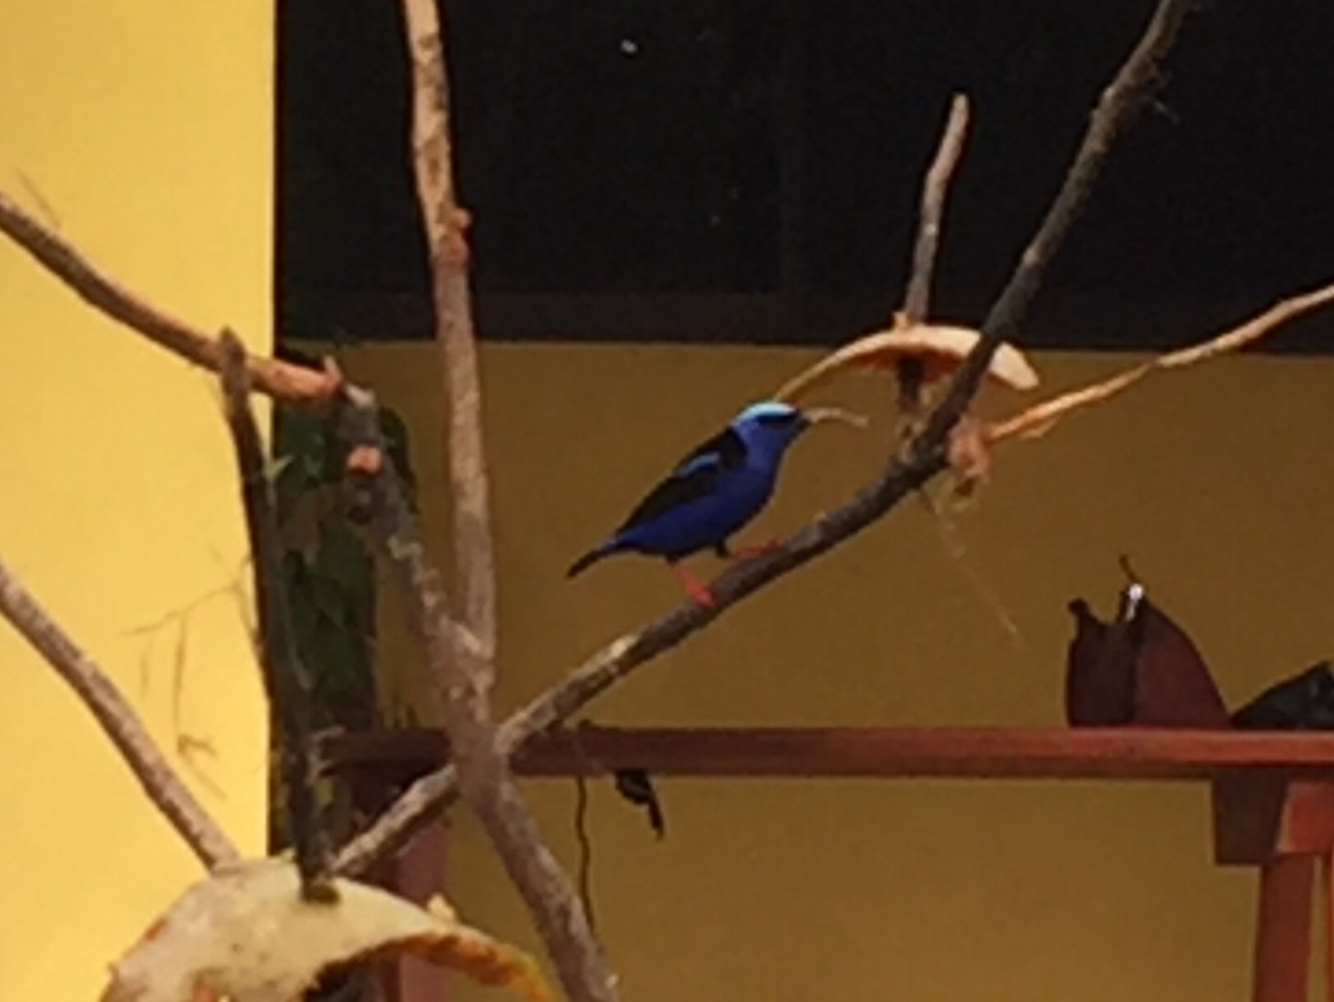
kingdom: Animalia
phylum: Chordata
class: Aves
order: Passeriformes
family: Thraupidae
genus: Cyanerpes
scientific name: Cyanerpes cyaneus
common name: Red-legged honeycreeper
